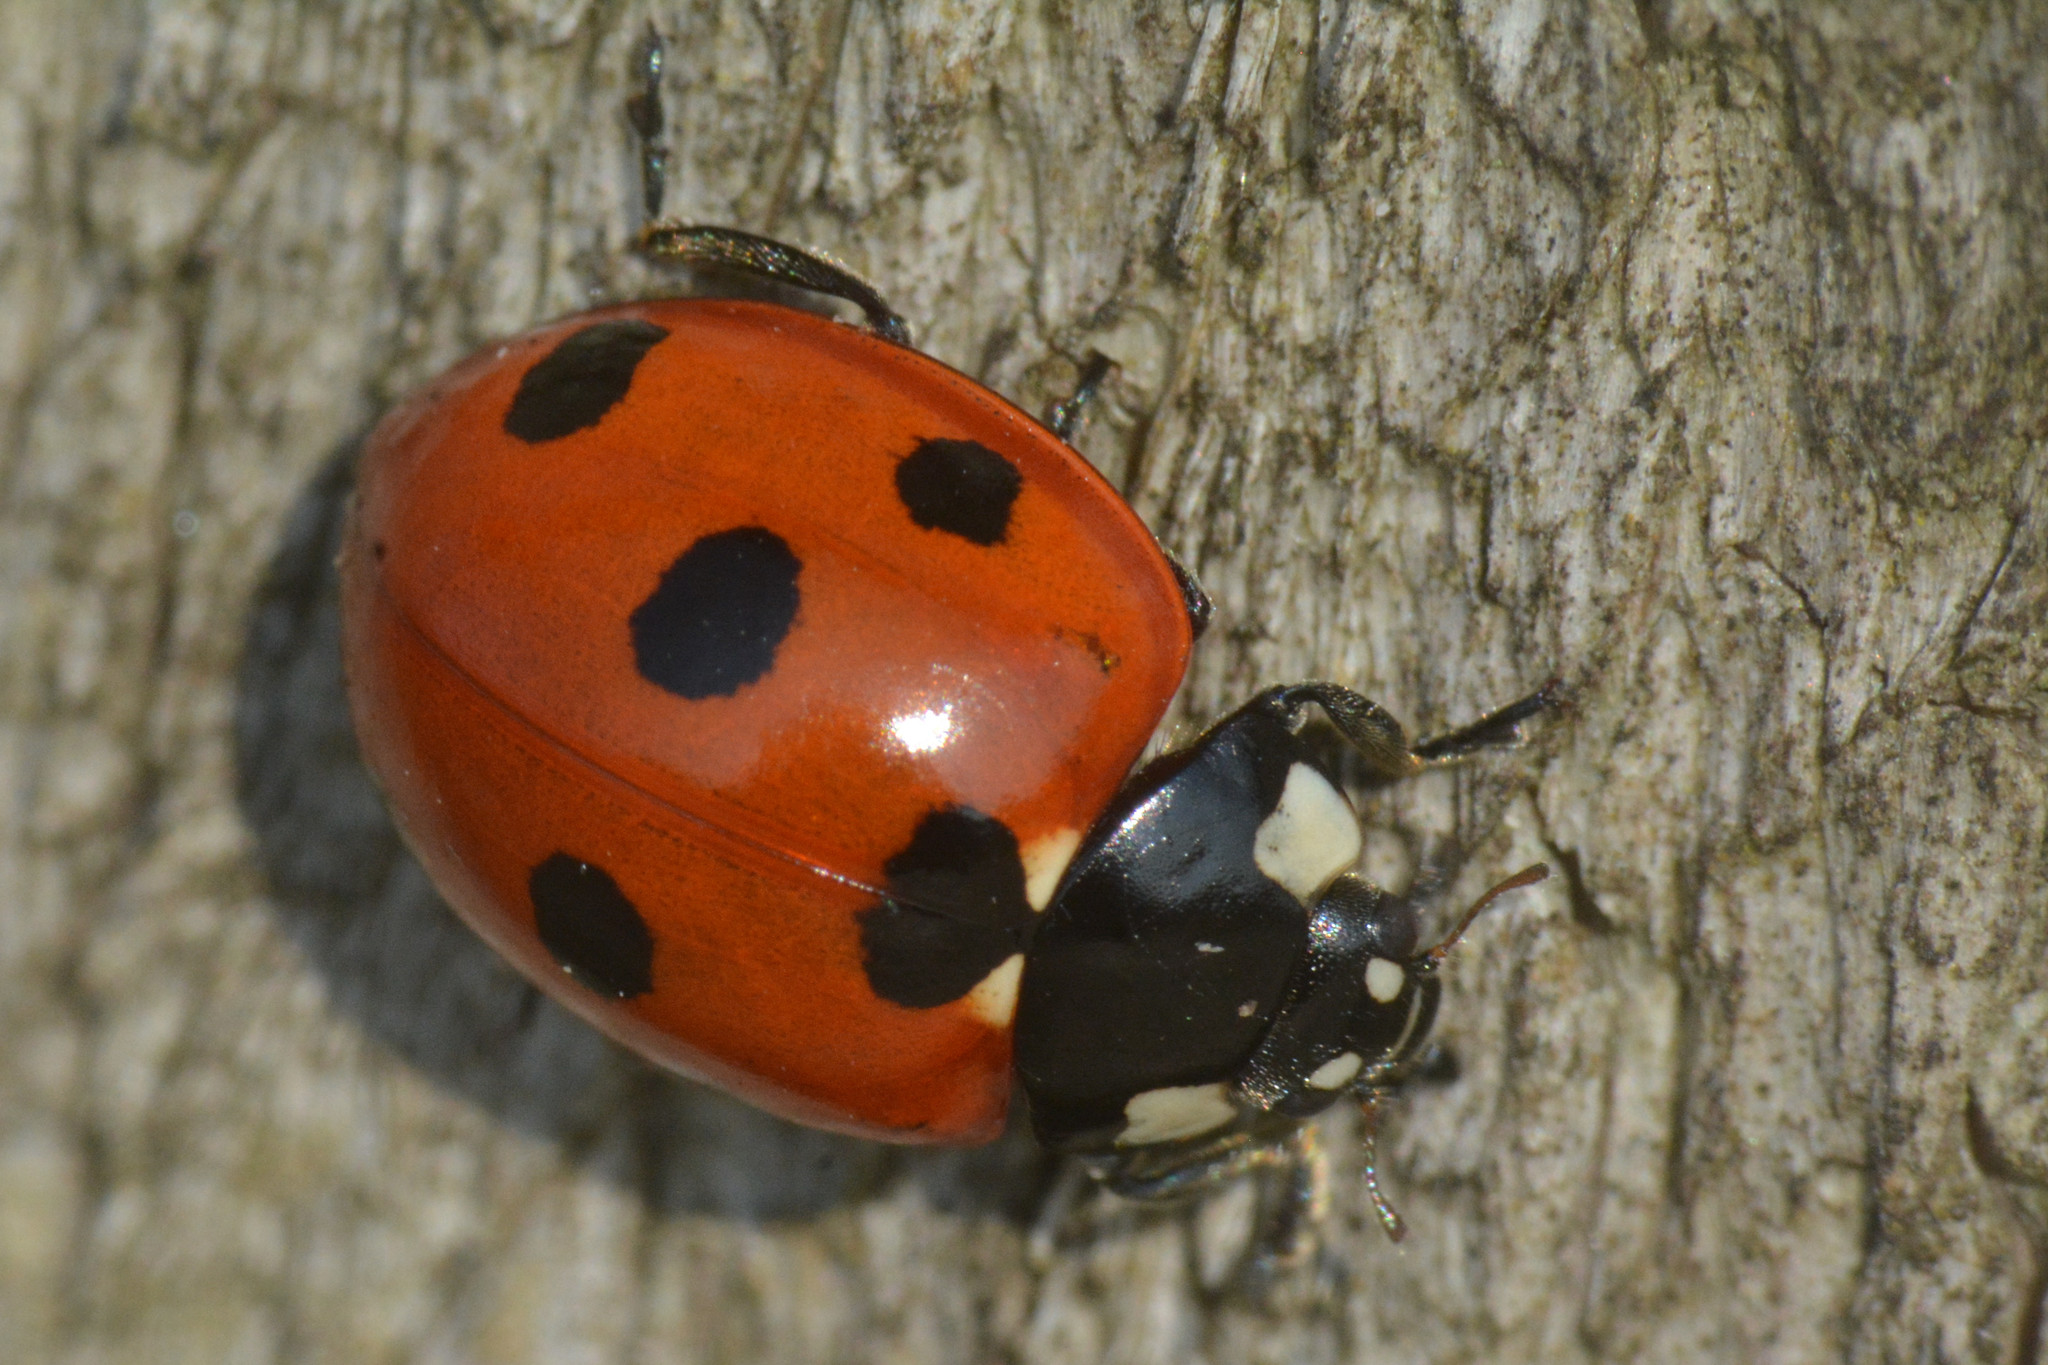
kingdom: Animalia
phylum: Arthropoda
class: Insecta
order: Coleoptera
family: Coccinellidae
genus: Coccinella
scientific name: Coccinella septempunctata
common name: Sevenspotted lady beetle
